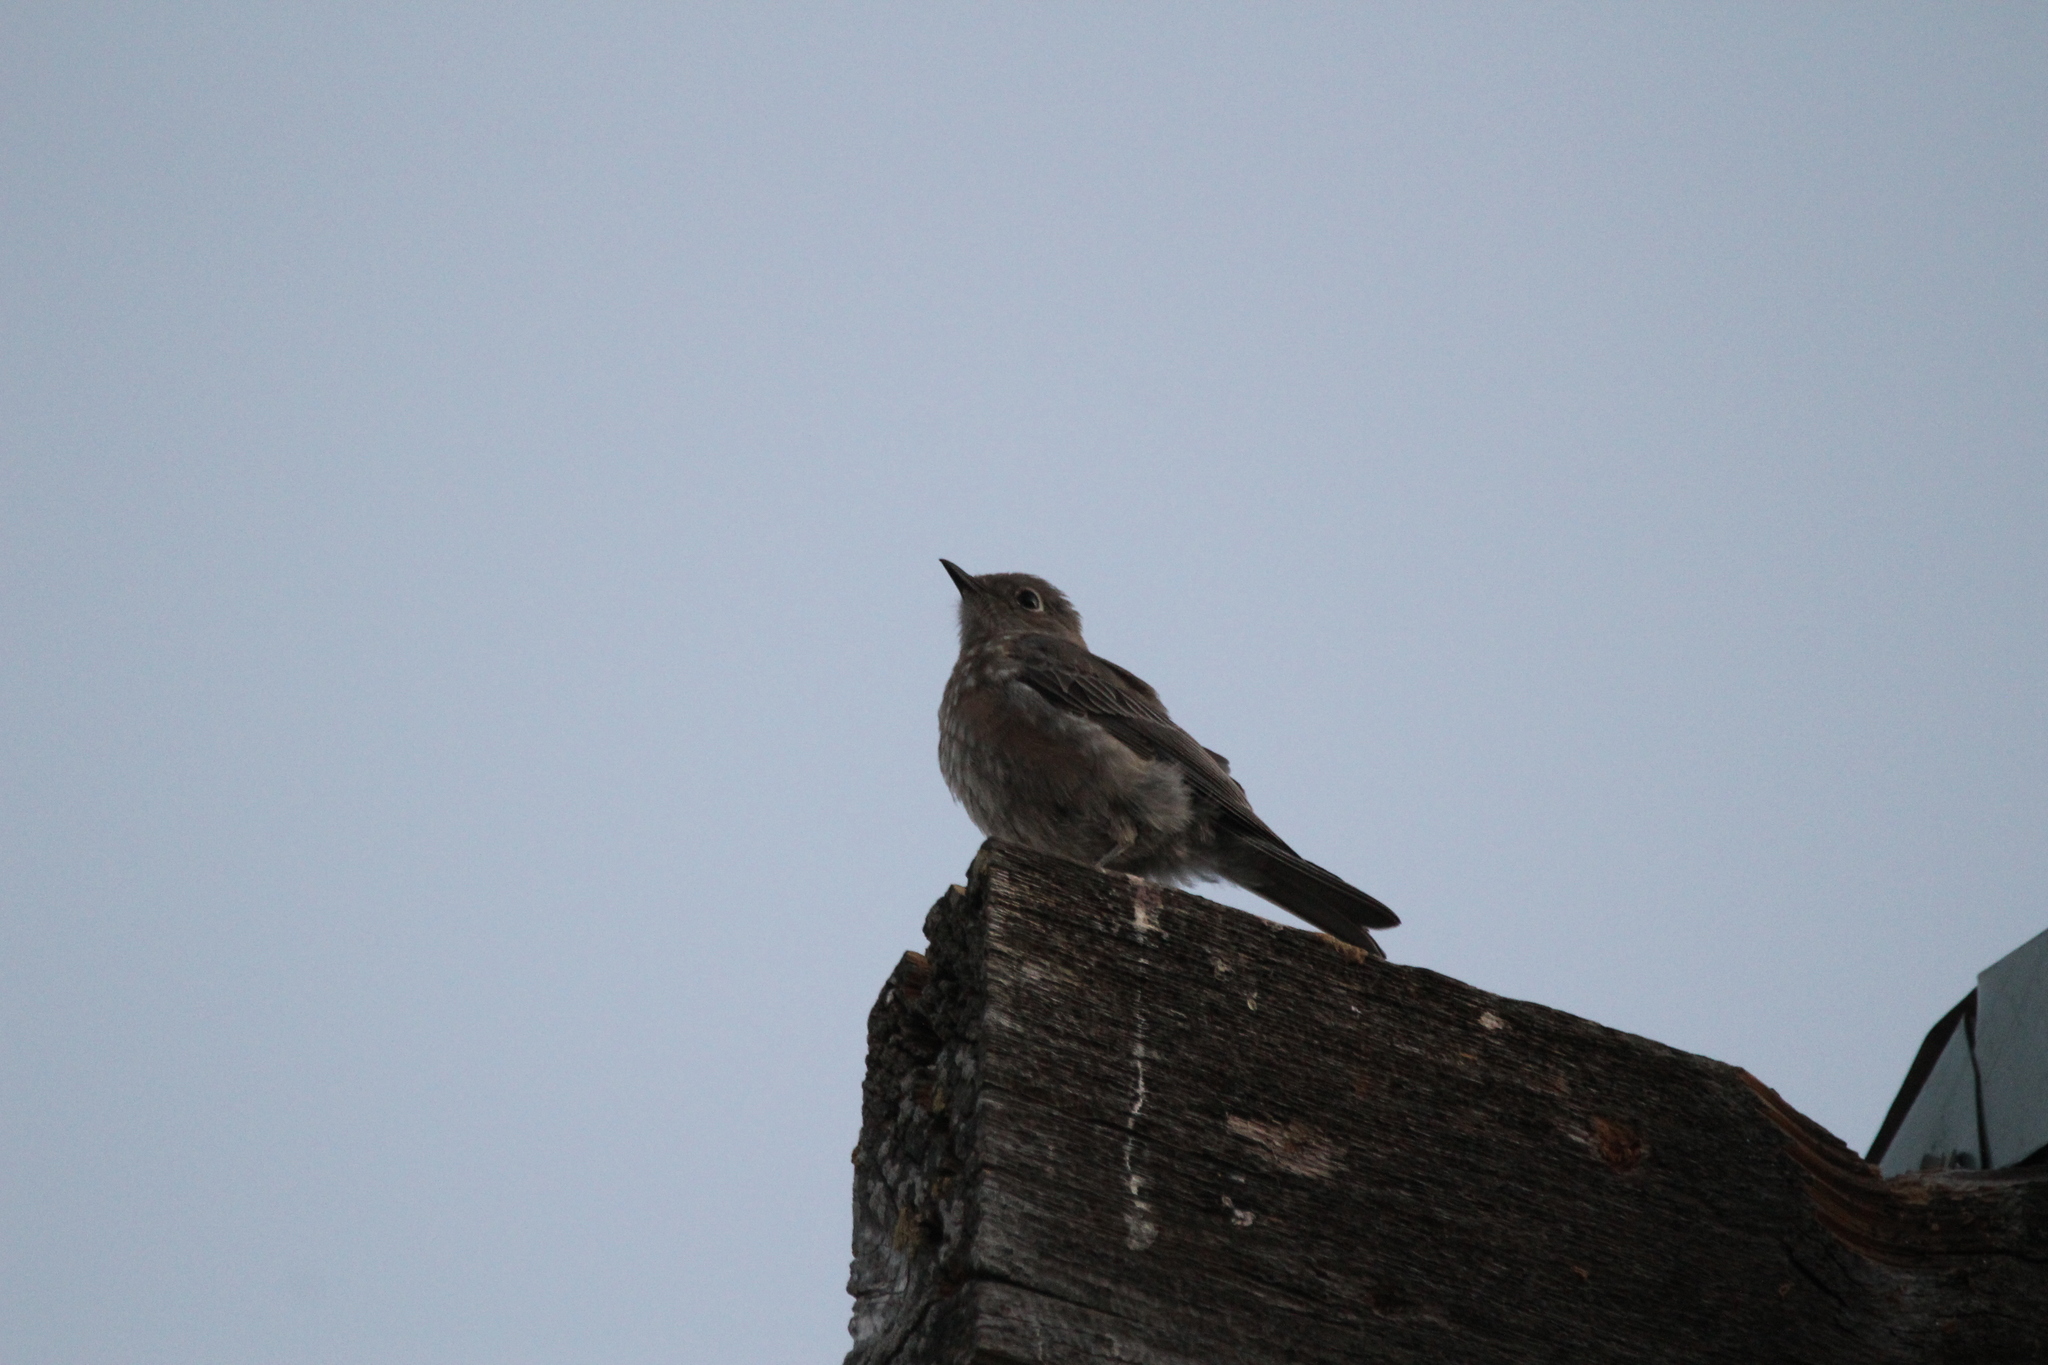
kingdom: Animalia
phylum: Chordata
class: Aves
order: Passeriformes
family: Turdidae
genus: Sialia
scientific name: Sialia mexicana
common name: Western bluebird
